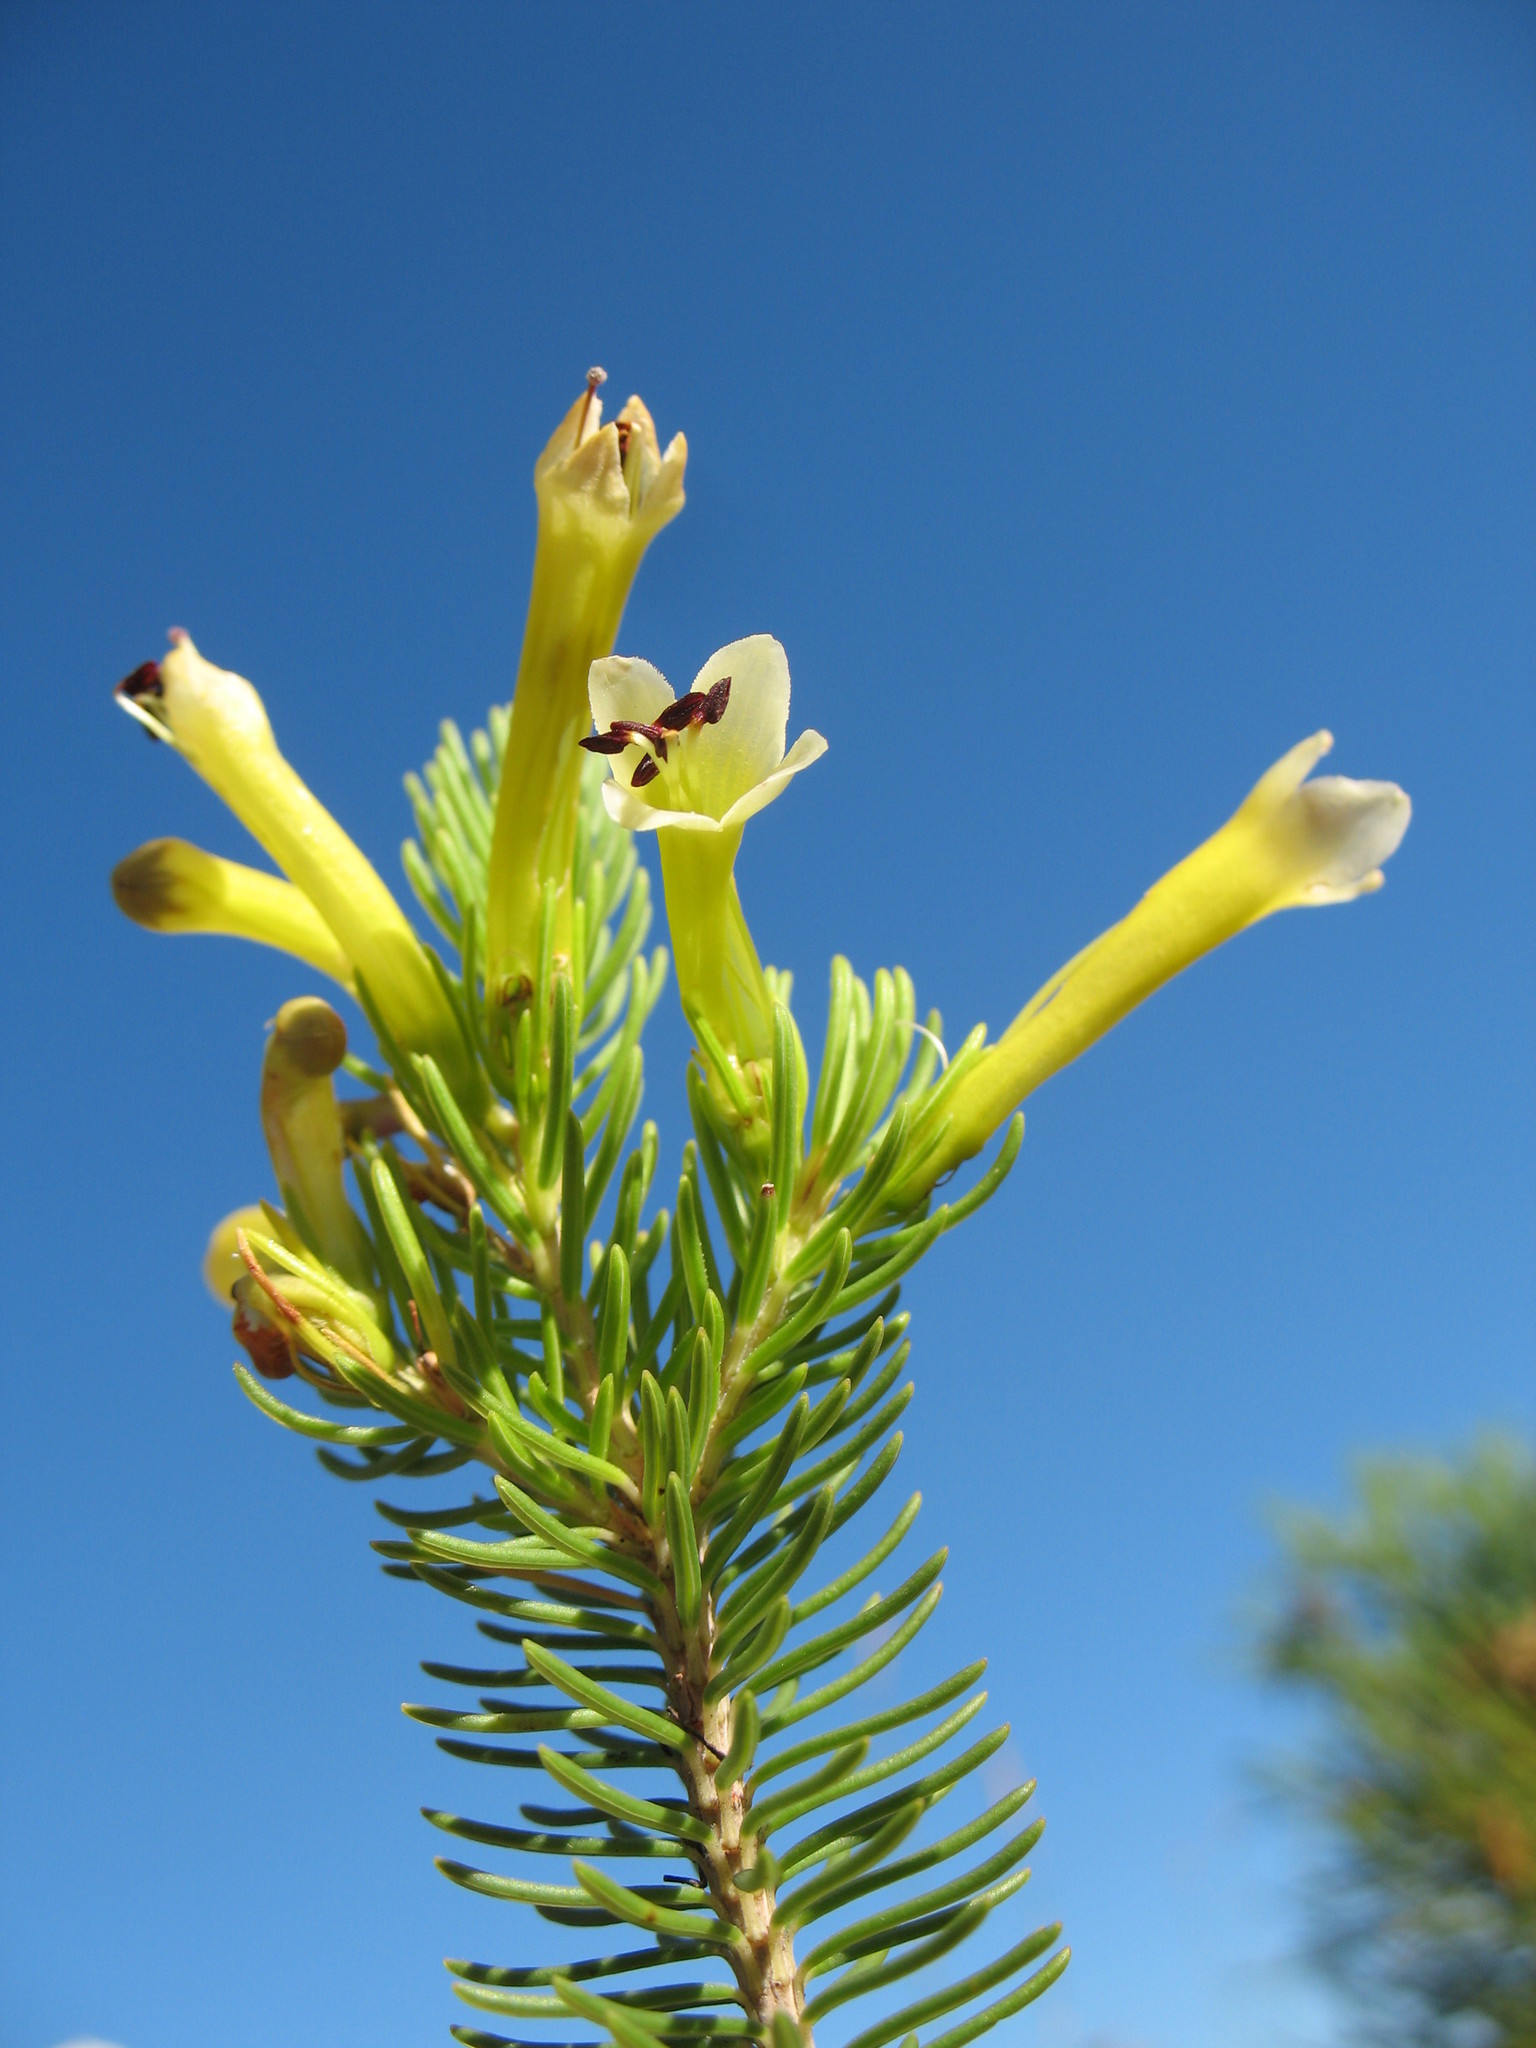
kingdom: Plantae
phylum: Tracheophyta
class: Magnoliopsida
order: Ericales
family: Ericaceae
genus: Erica
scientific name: Erica pinea
